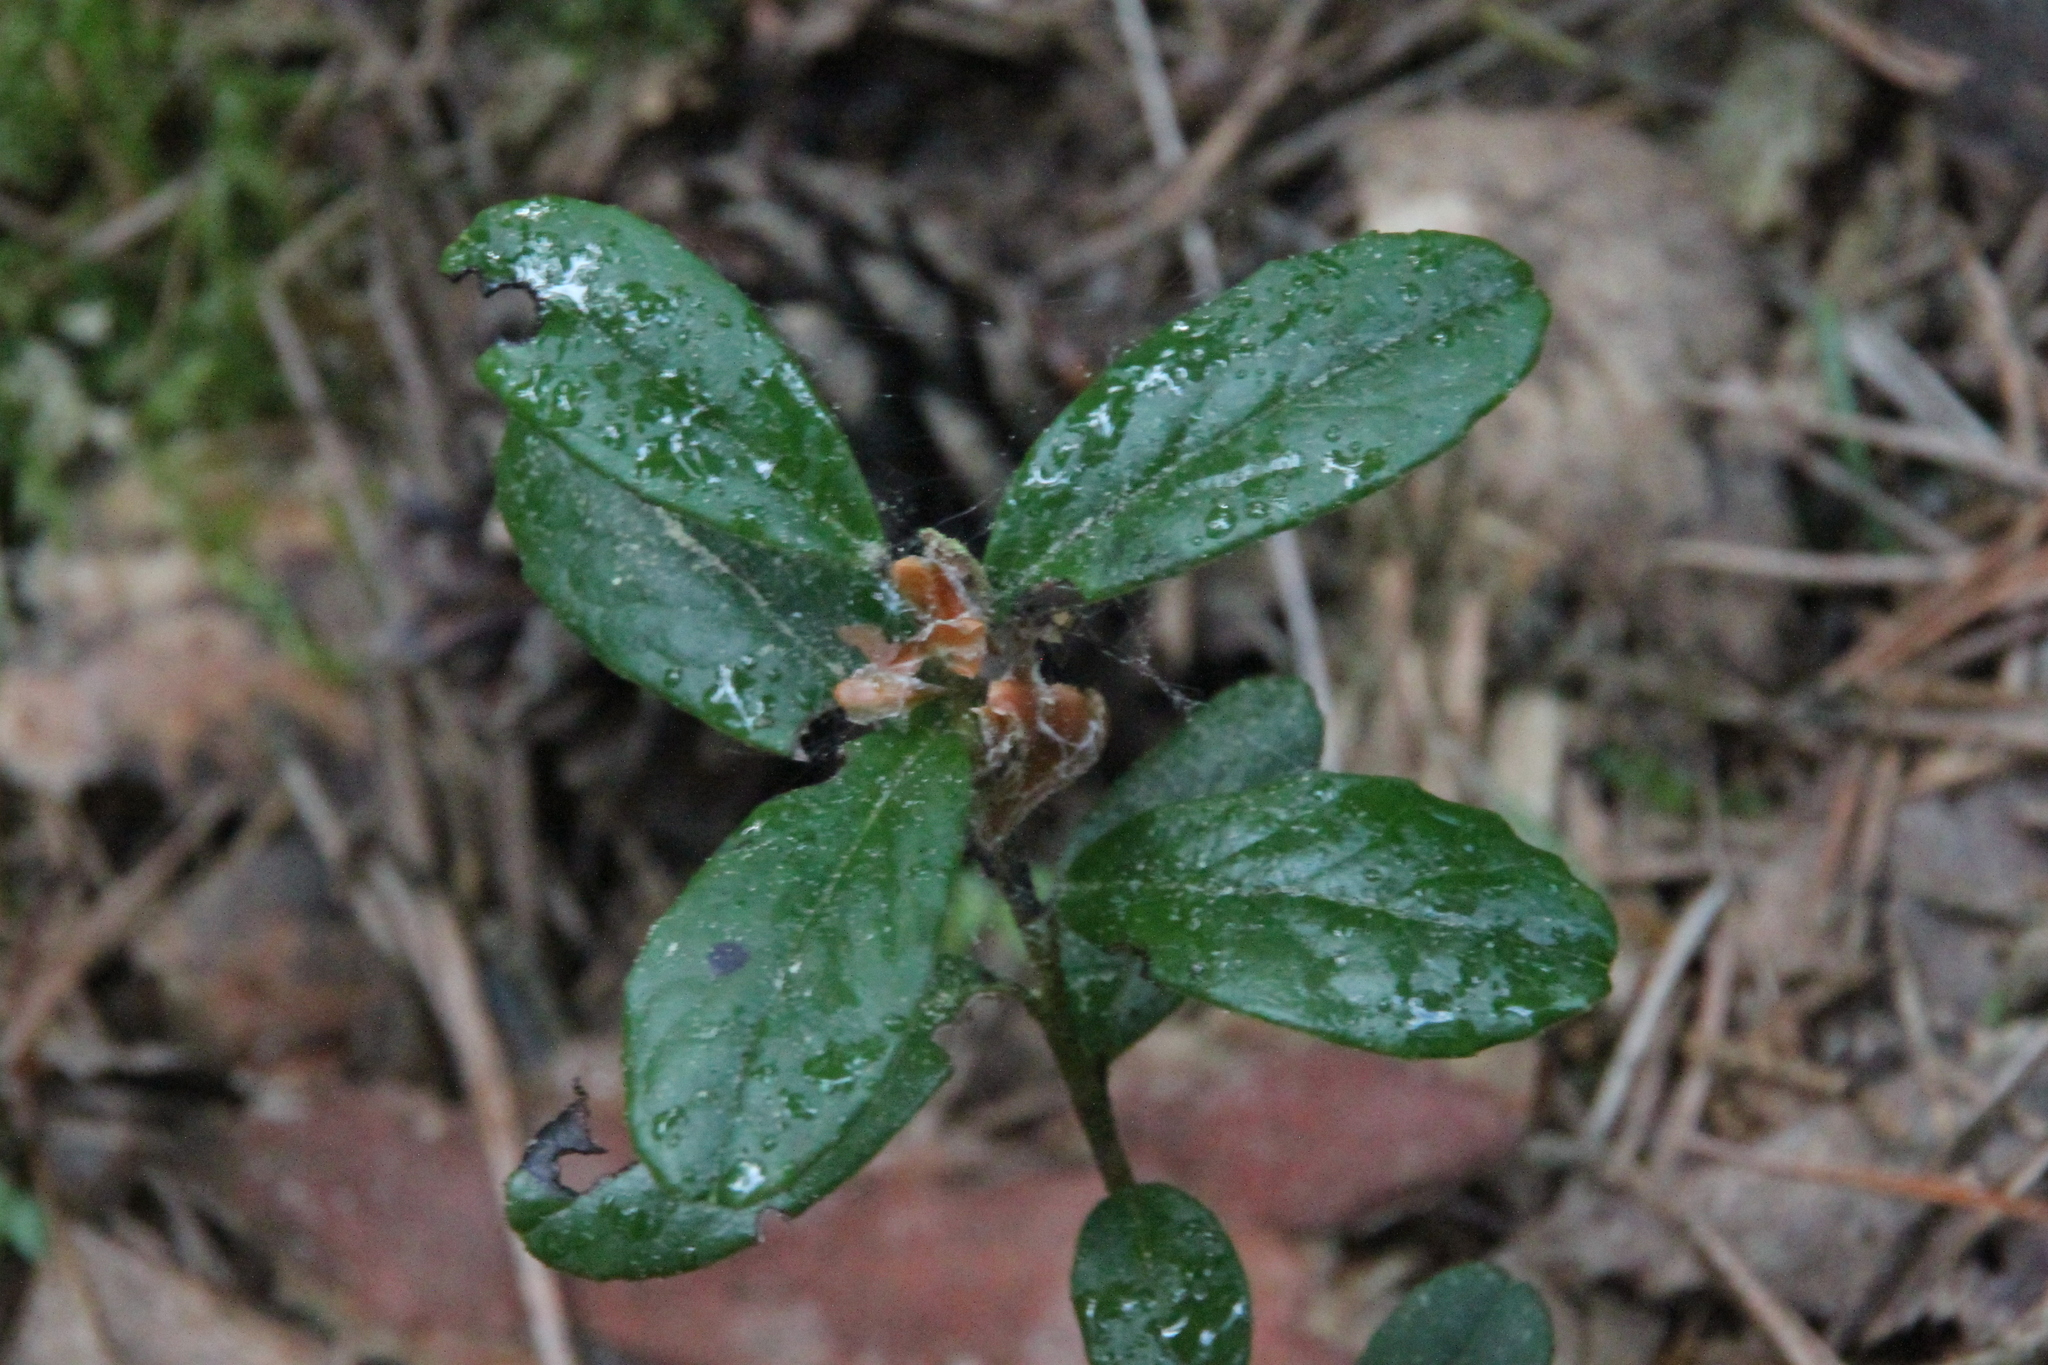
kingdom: Plantae
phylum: Tracheophyta
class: Magnoliopsida
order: Ericales
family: Ericaceae
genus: Vaccinium
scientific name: Vaccinium vitis-idaea
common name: Cowberry
